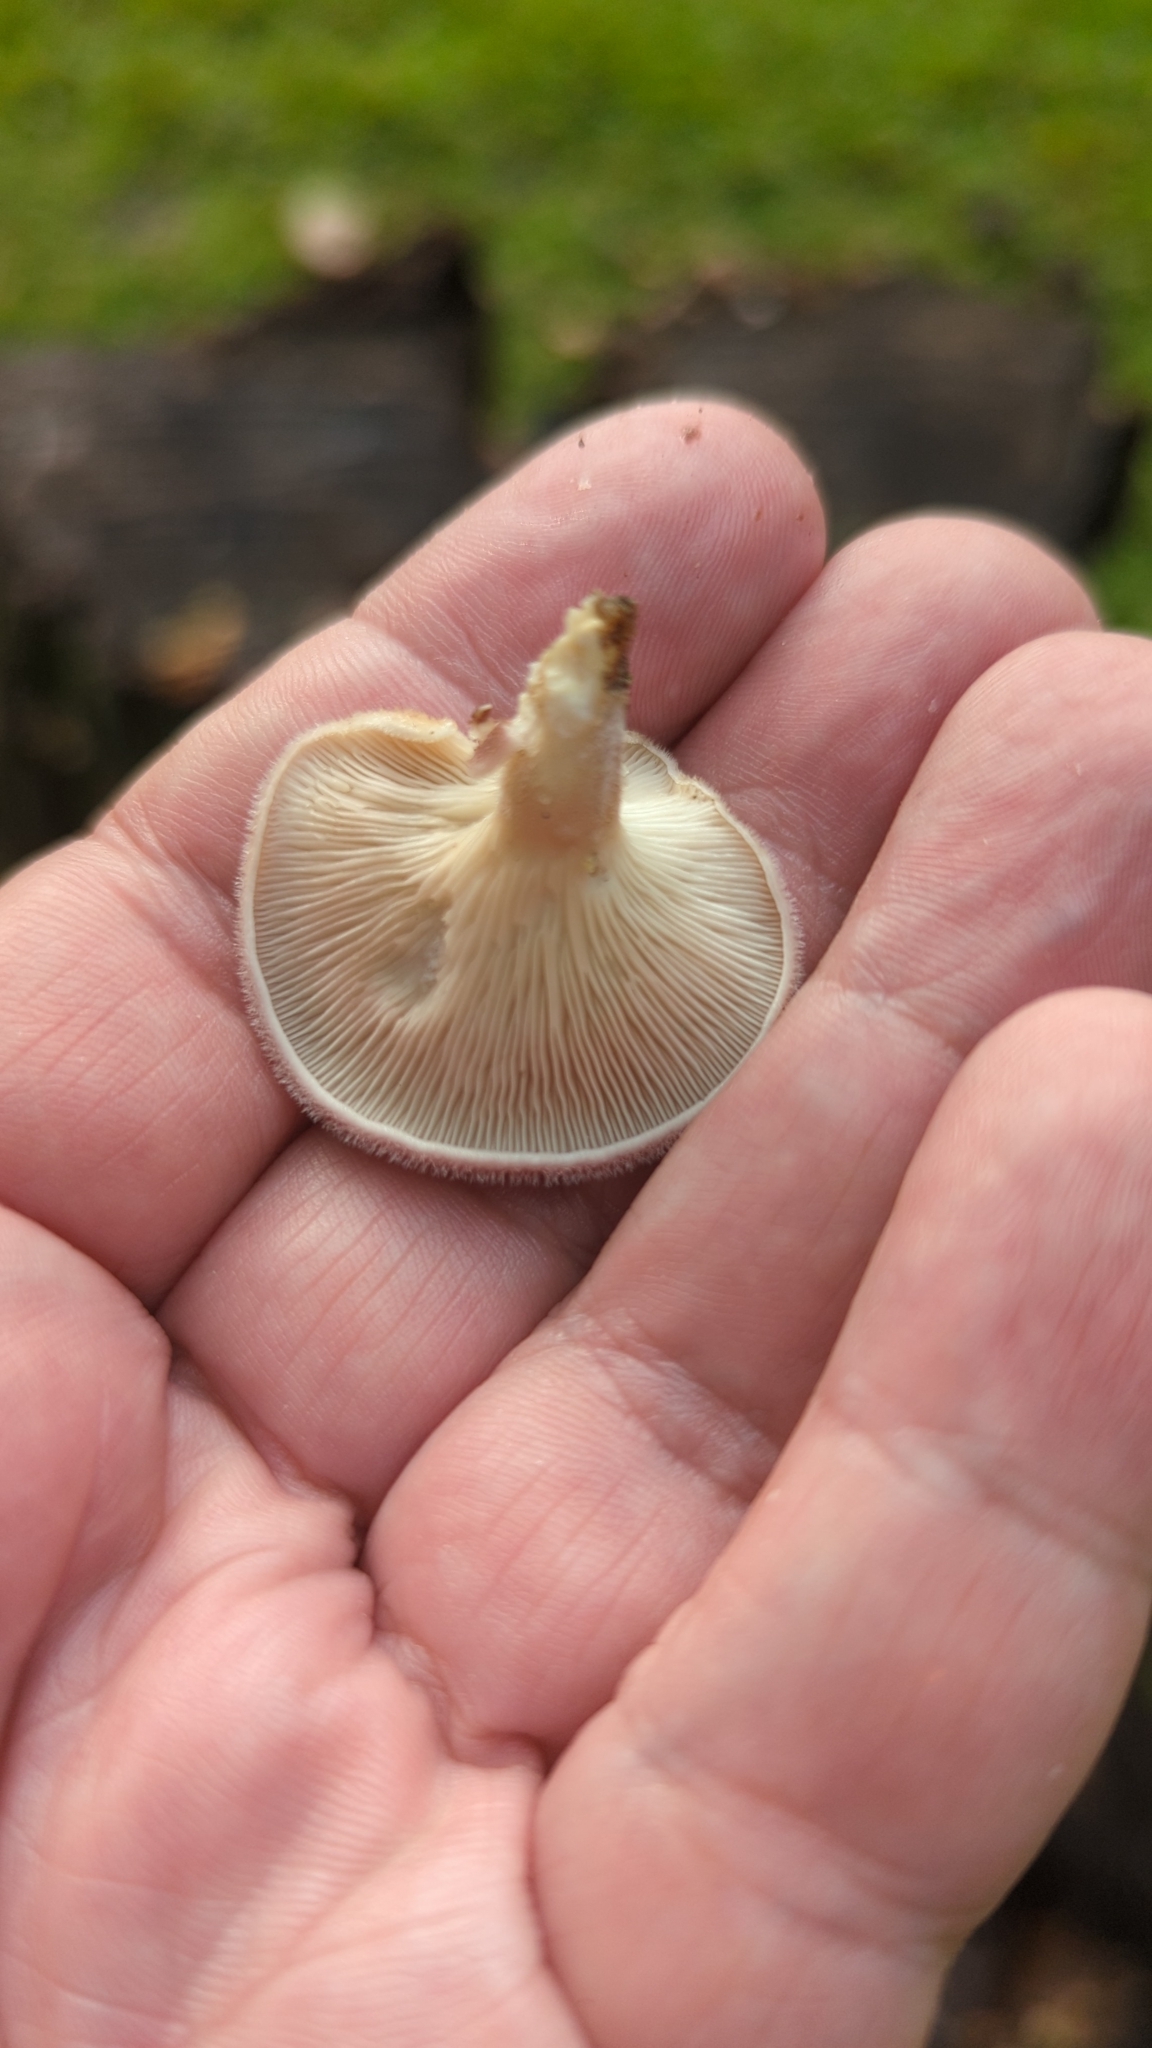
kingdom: Fungi
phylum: Basidiomycota
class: Agaricomycetes
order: Polyporales
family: Panaceae
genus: Panus
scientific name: Panus neostrigosus
